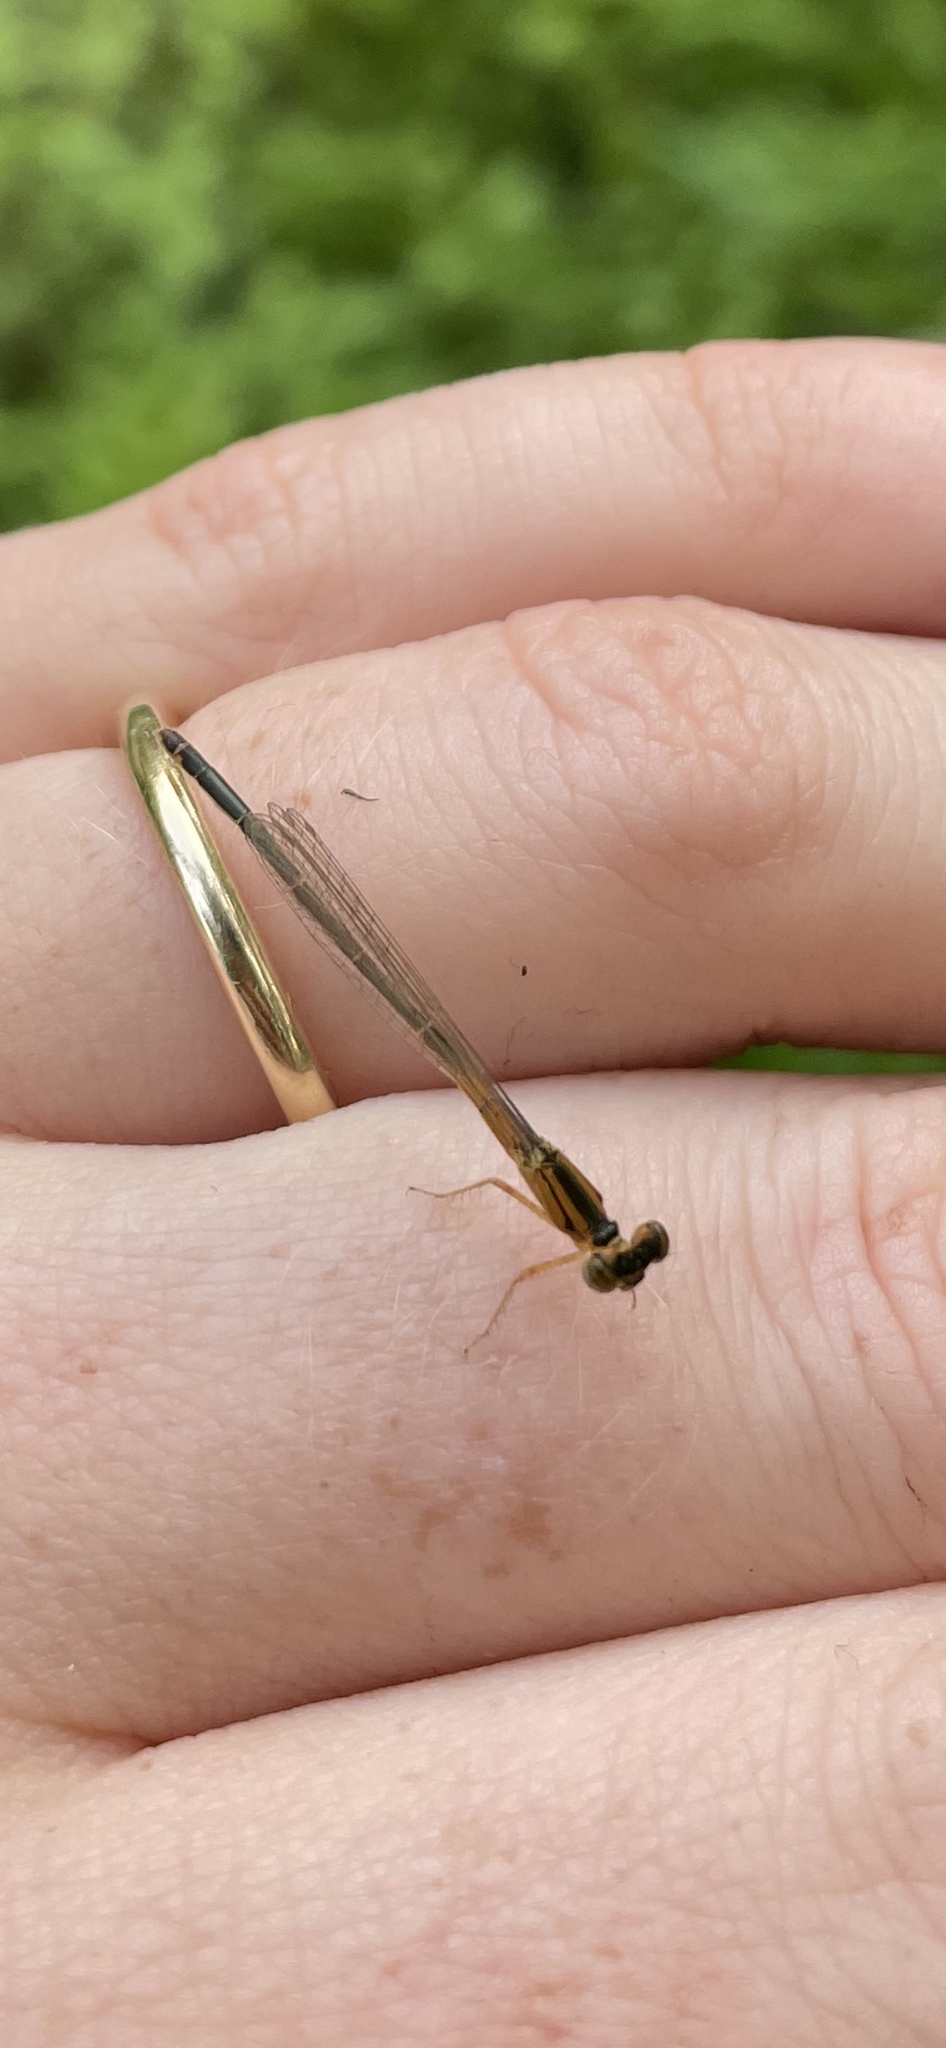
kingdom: Animalia
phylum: Arthropoda
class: Insecta
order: Odonata
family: Coenagrionidae
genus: Ischnura
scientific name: Ischnura verticalis
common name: Eastern forktail
